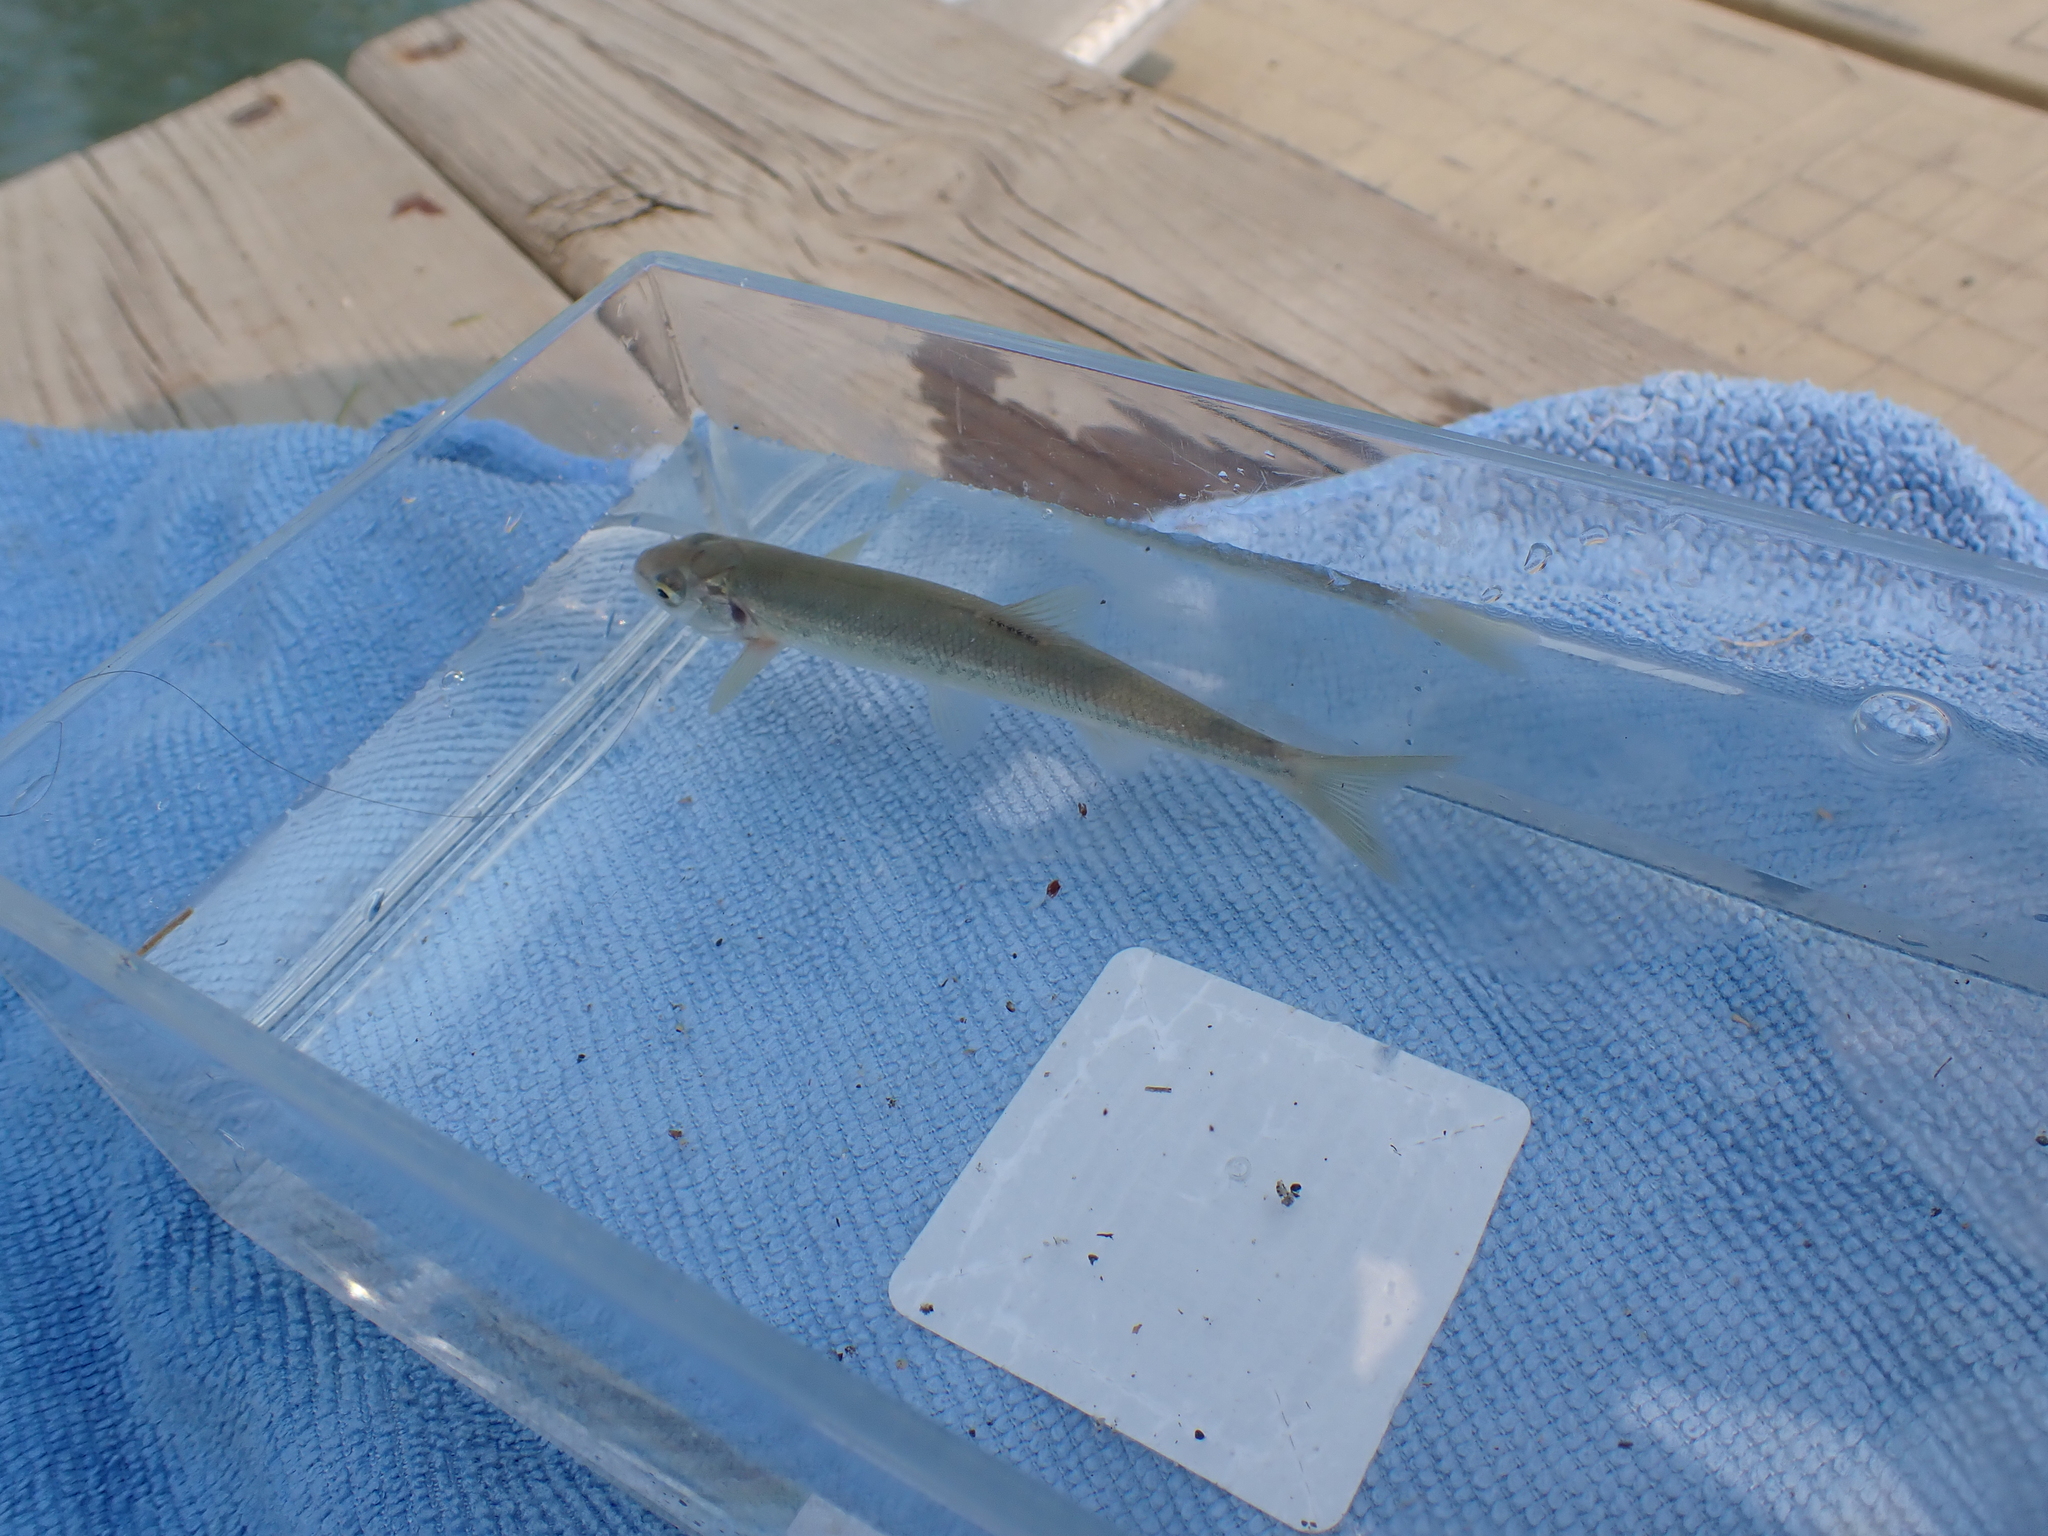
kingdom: Animalia
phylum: Chordata
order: Cypriniformes
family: Cyprinidae
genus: Couesius
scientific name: Couesius plumbeus
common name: Lake chub
